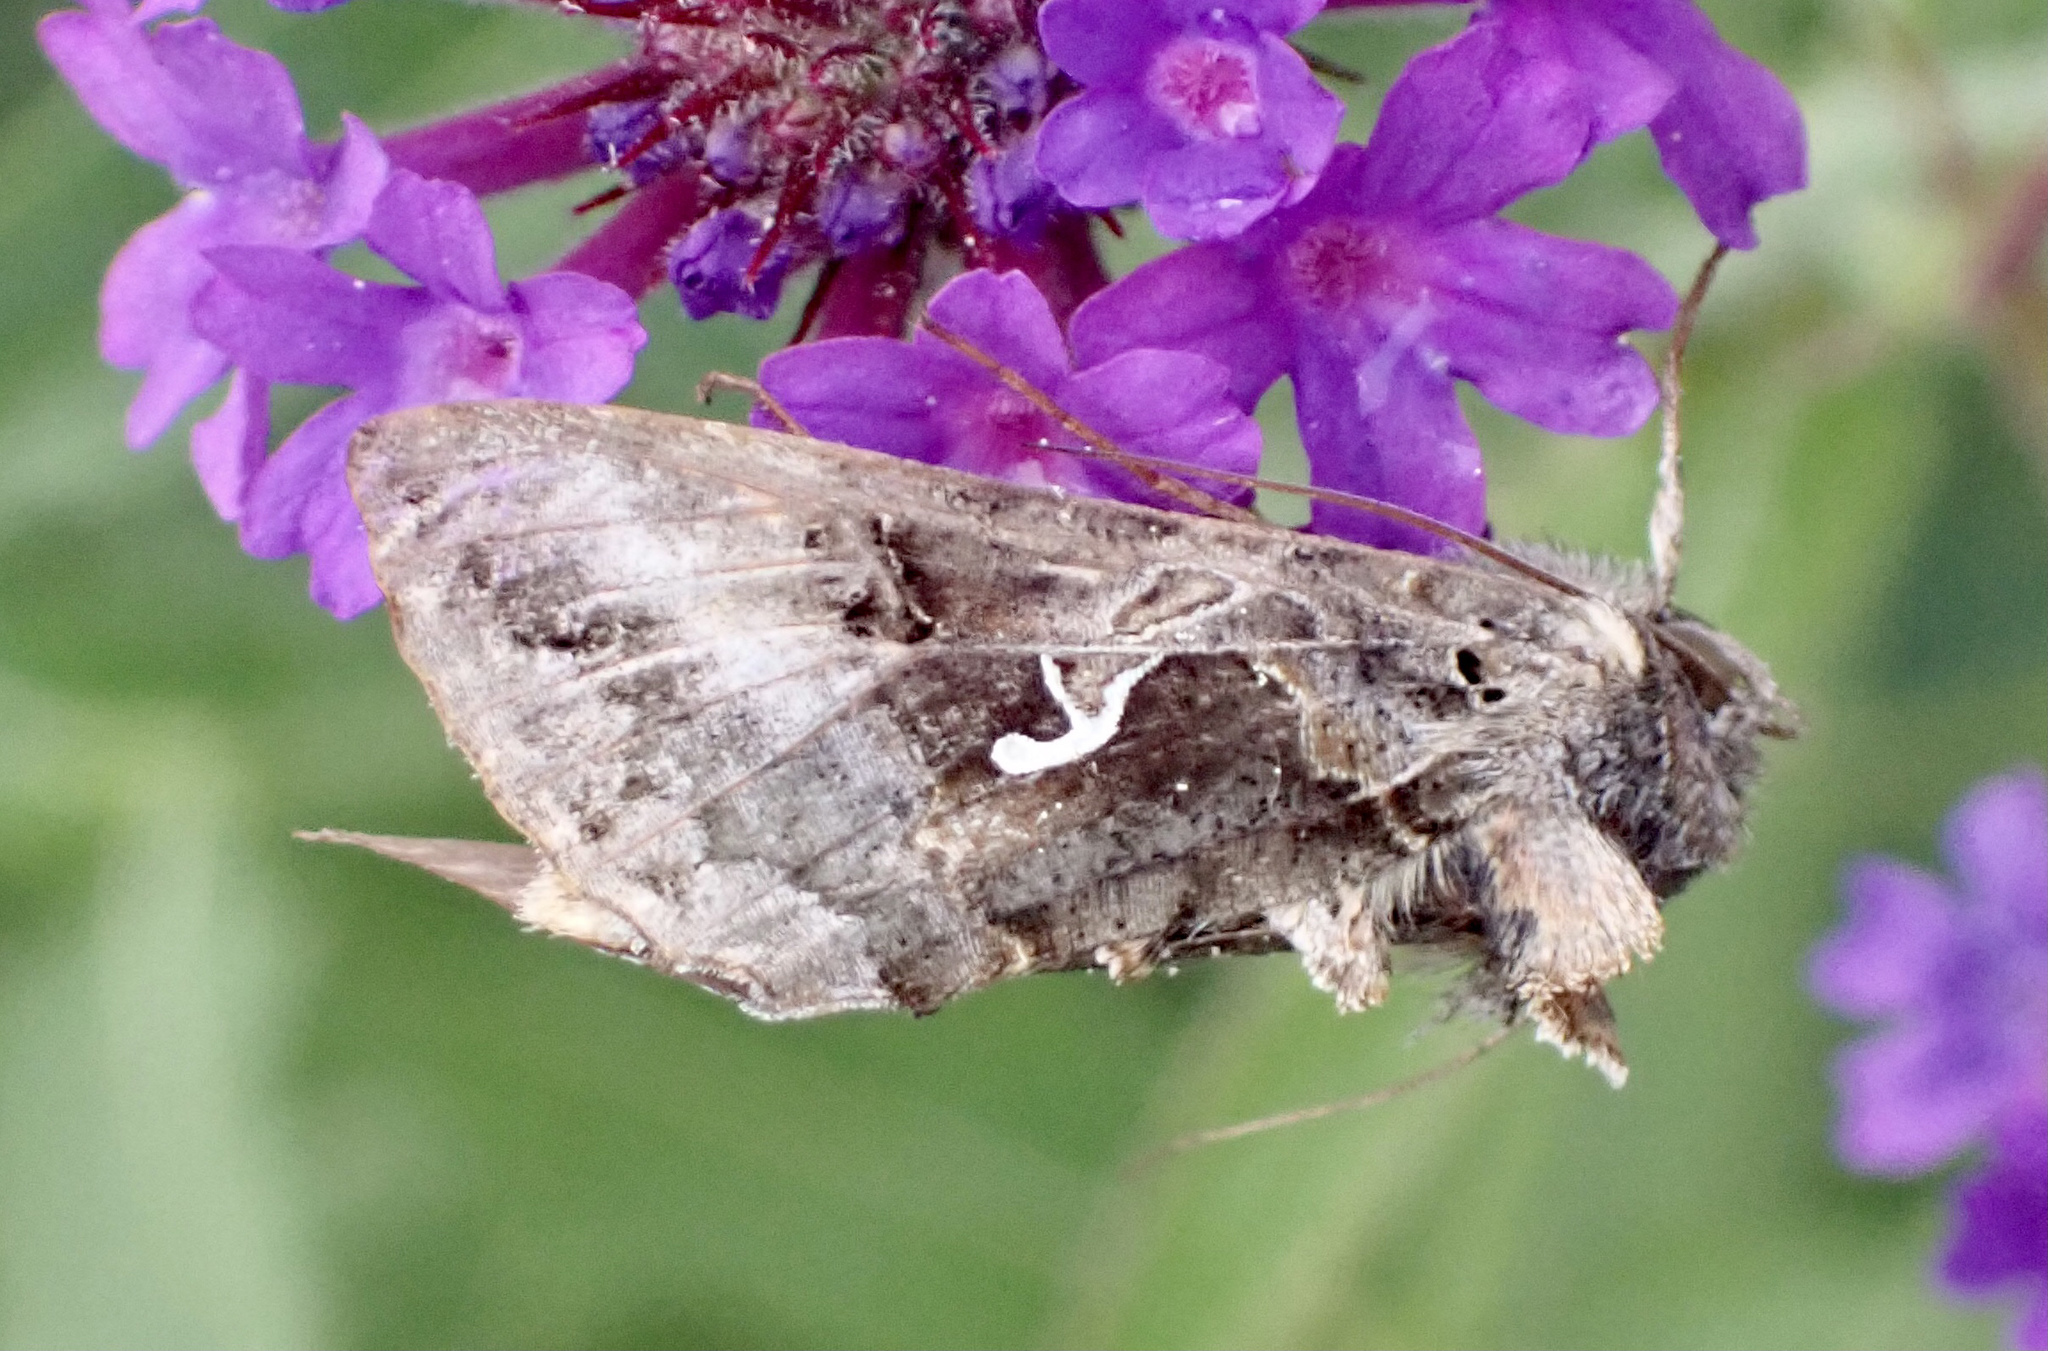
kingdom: Animalia
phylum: Arthropoda
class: Insecta
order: Lepidoptera
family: Noctuidae
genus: Autographa
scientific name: Autographa gamma
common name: Silver y
